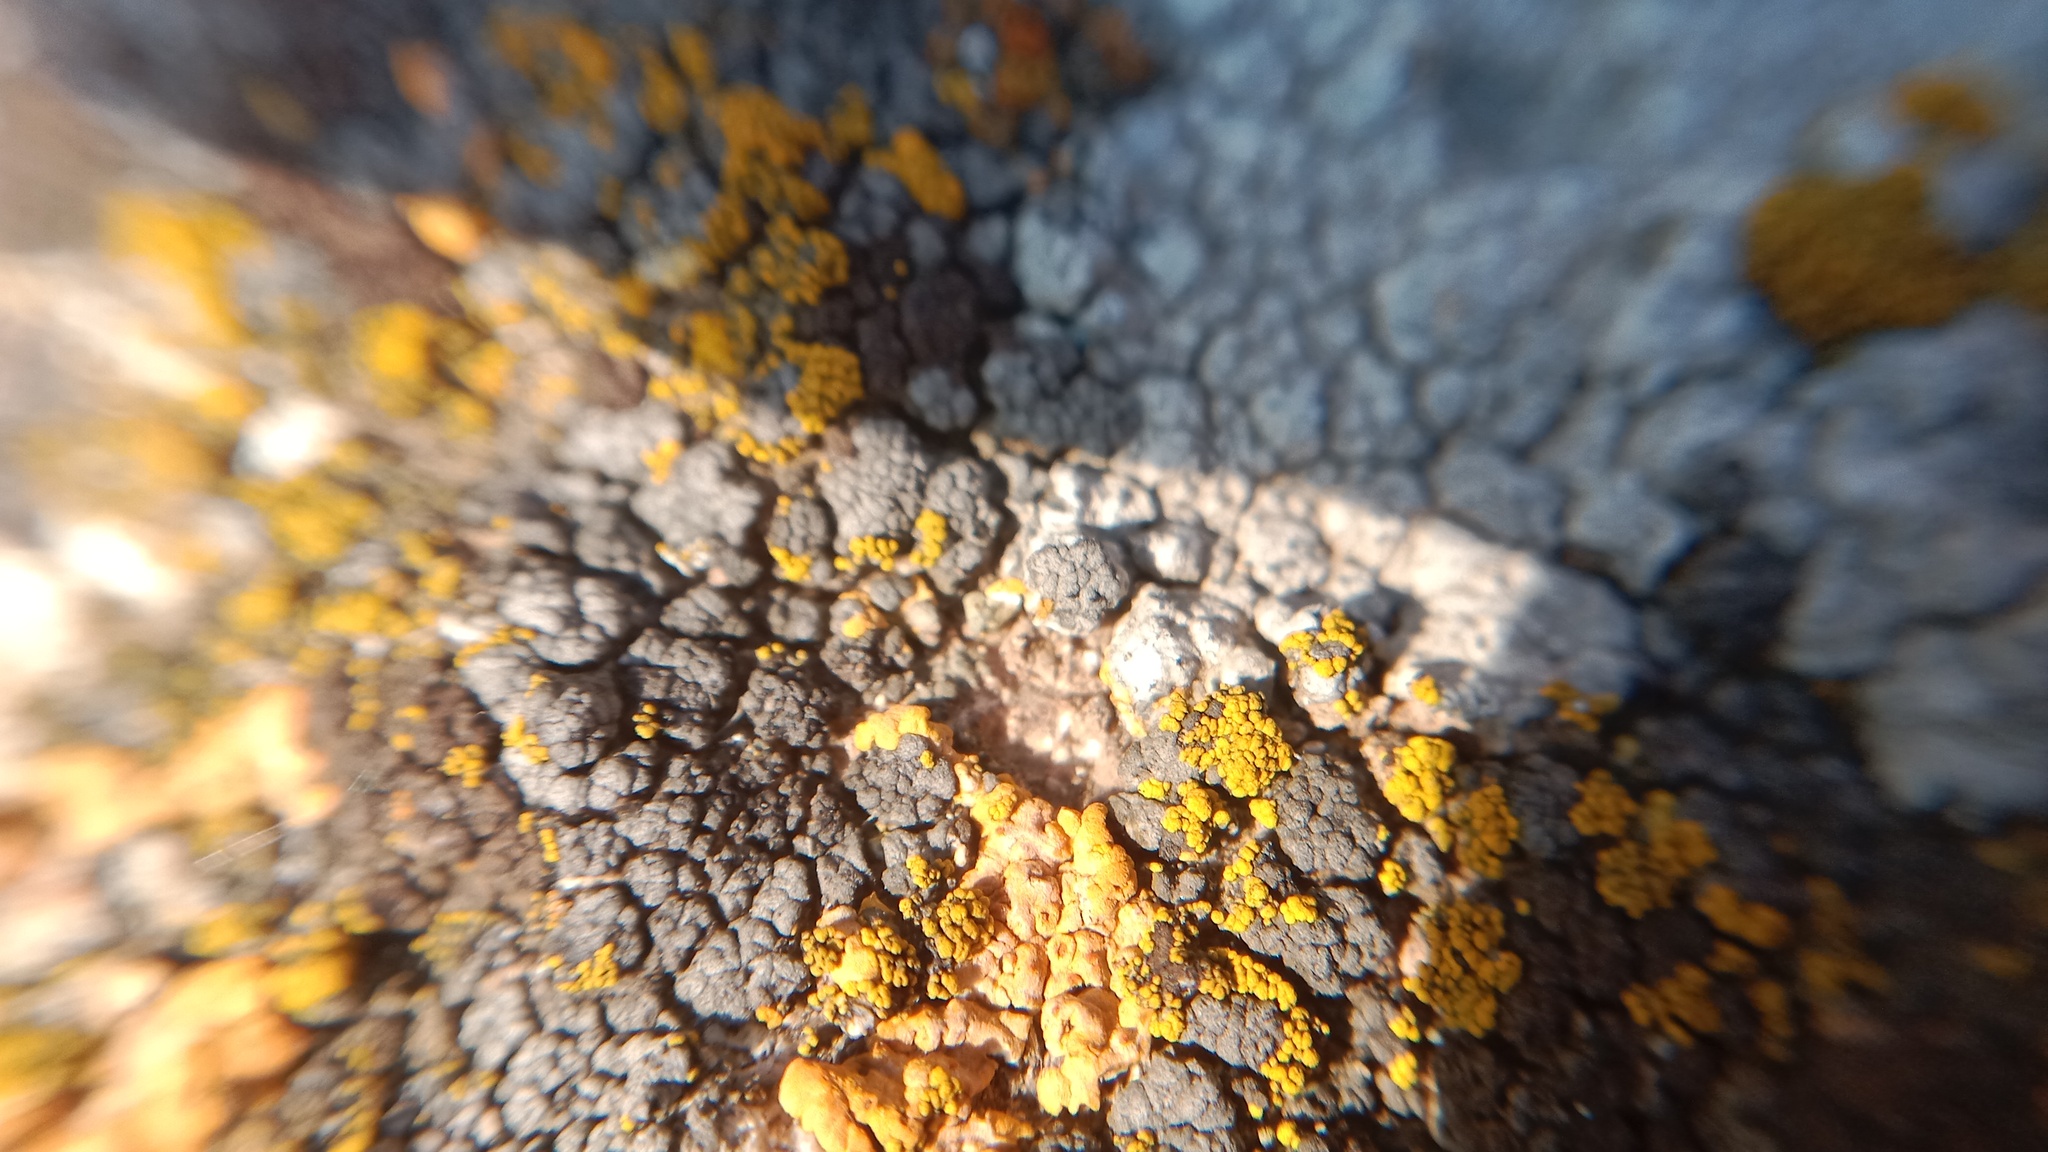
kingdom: Fungi
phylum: Ascomycota
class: Candelariomycetes
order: Candelariales
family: Candelariaceae
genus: Candelariella
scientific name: Candelariella rosulans
